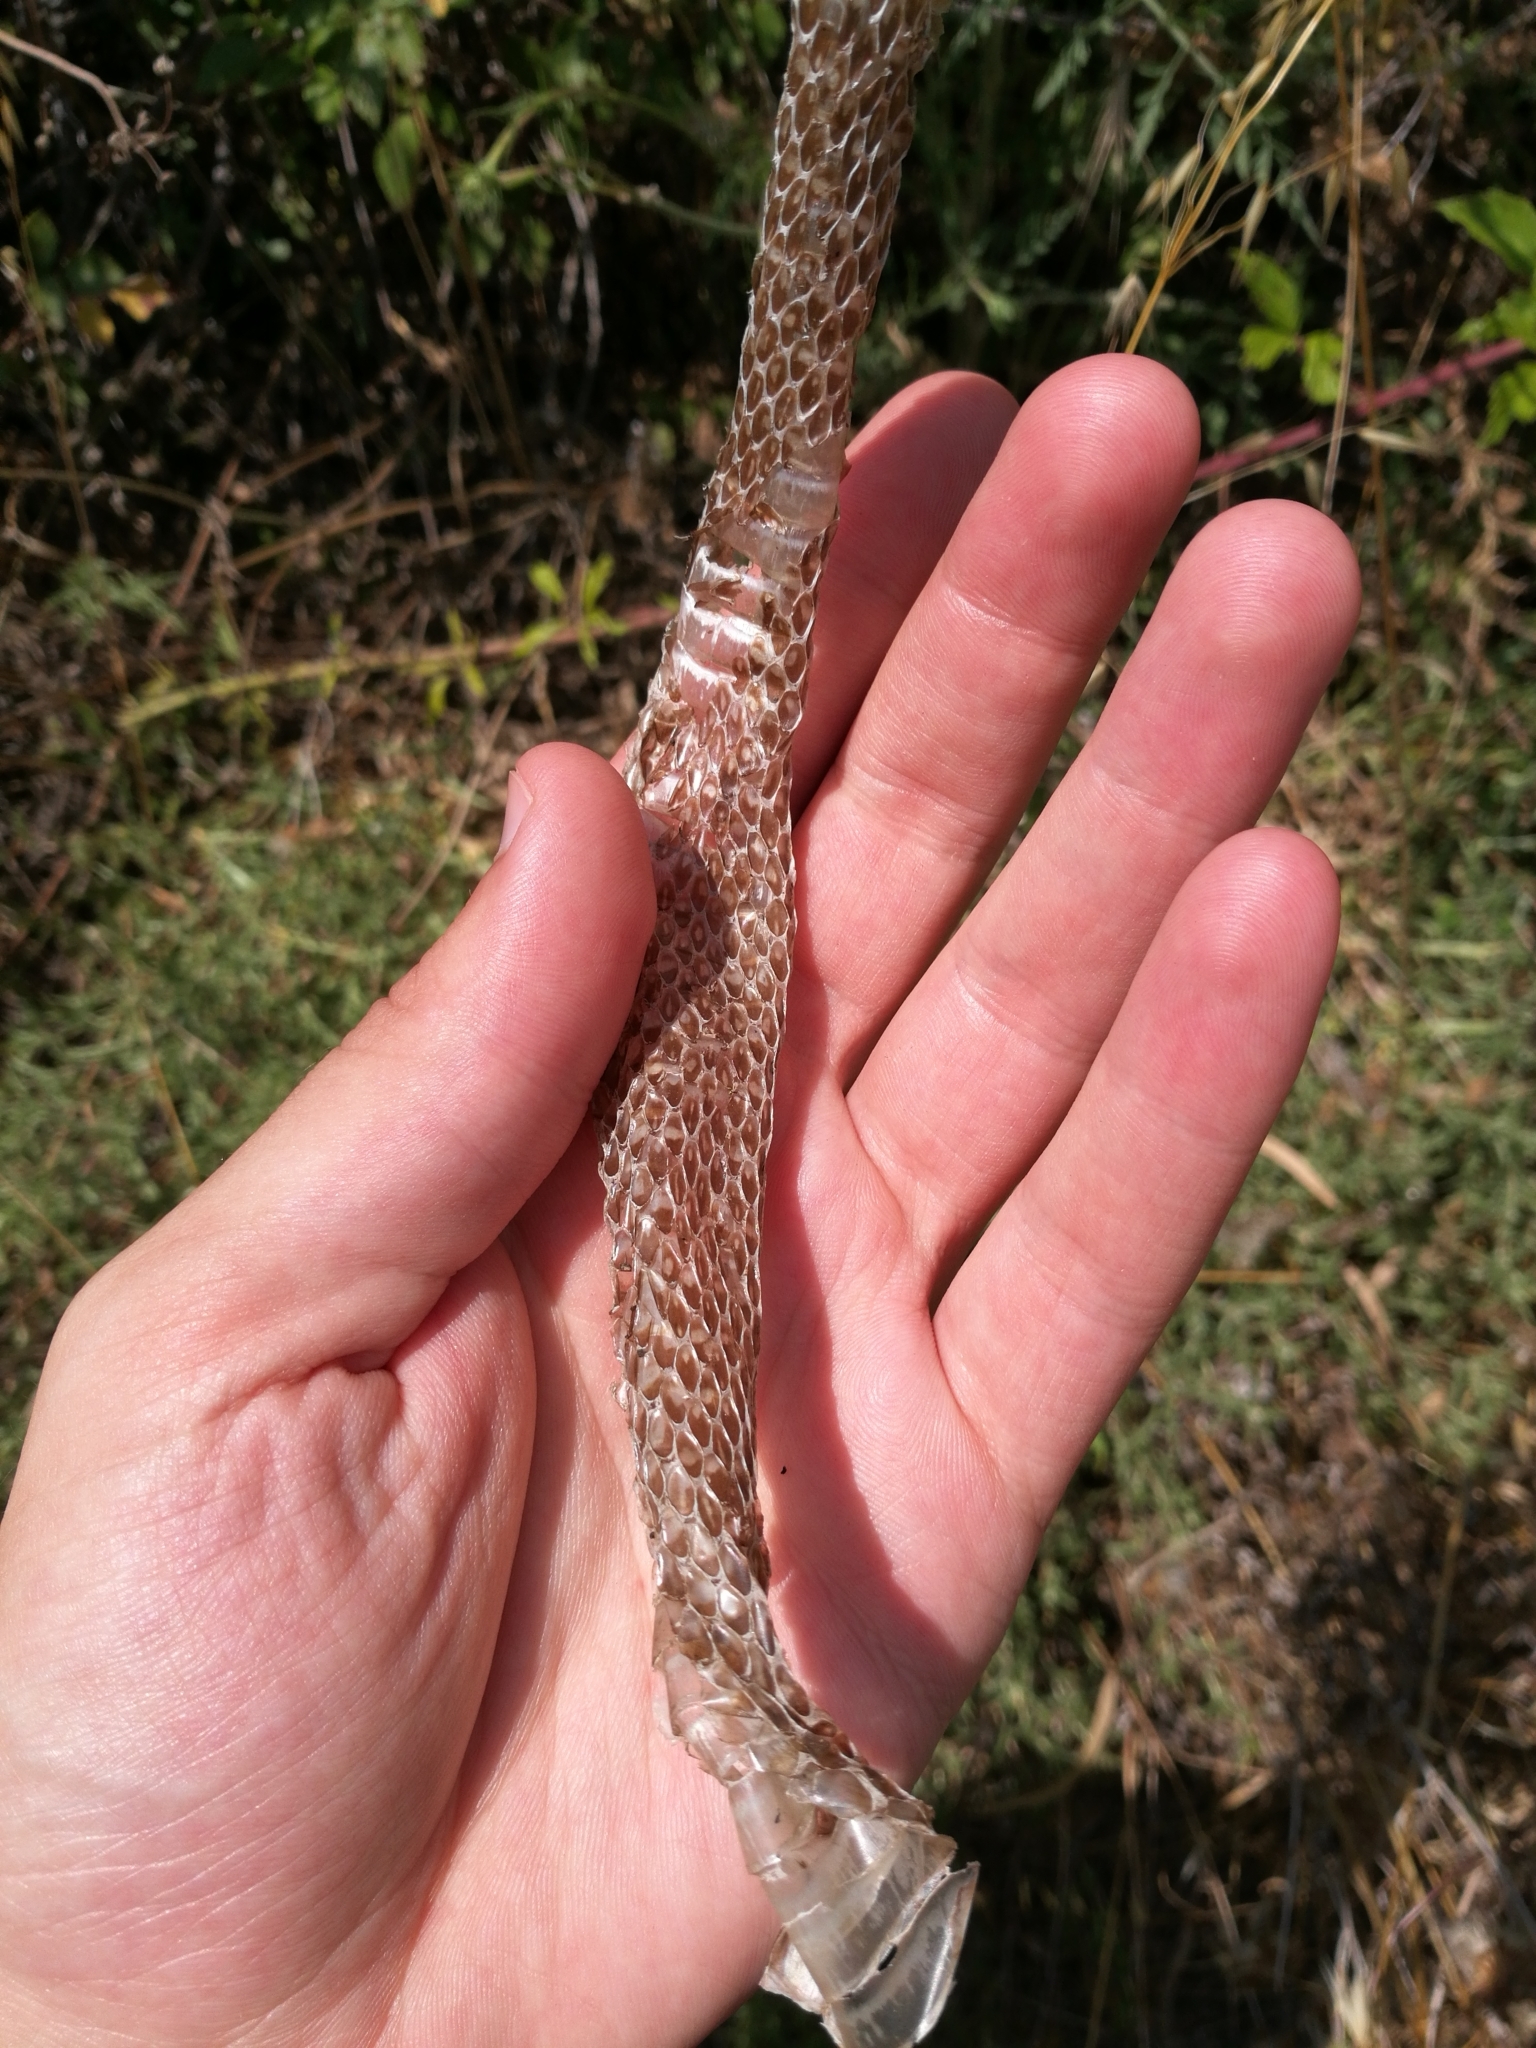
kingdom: Animalia
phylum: Chordata
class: Squamata
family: Colubridae
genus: Hierophis
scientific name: Hierophis viridiflavus
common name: Green whip snake
